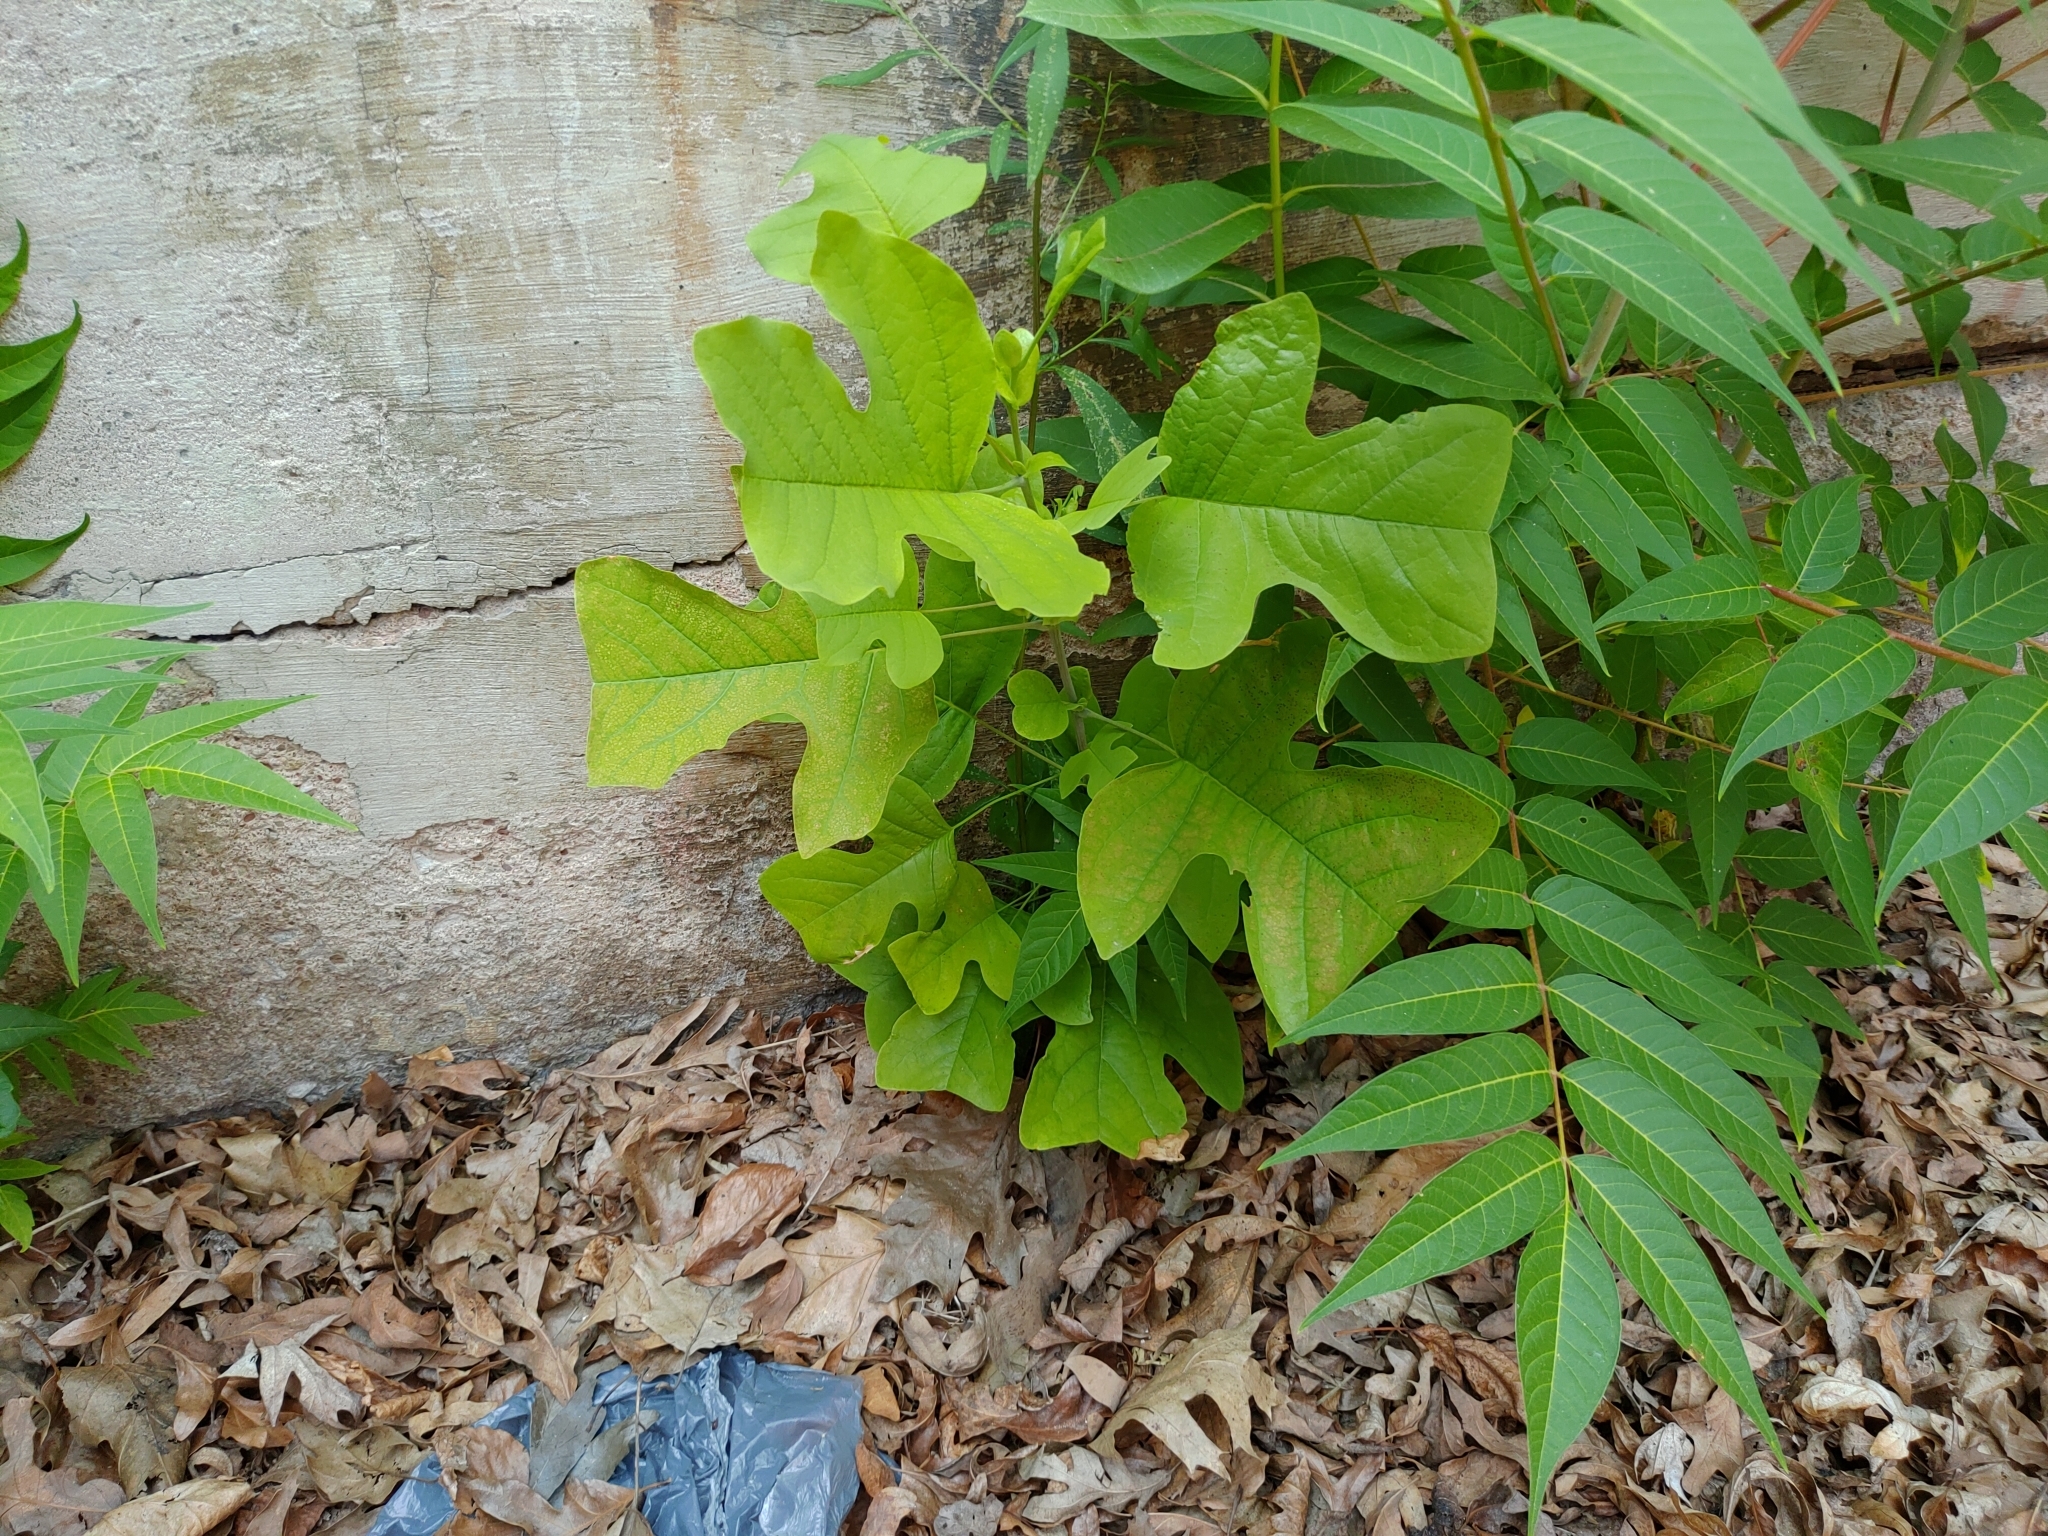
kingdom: Plantae
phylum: Tracheophyta
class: Magnoliopsida
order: Magnoliales
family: Magnoliaceae
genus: Liriodendron
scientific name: Liriodendron tulipifera
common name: Tulip tree
